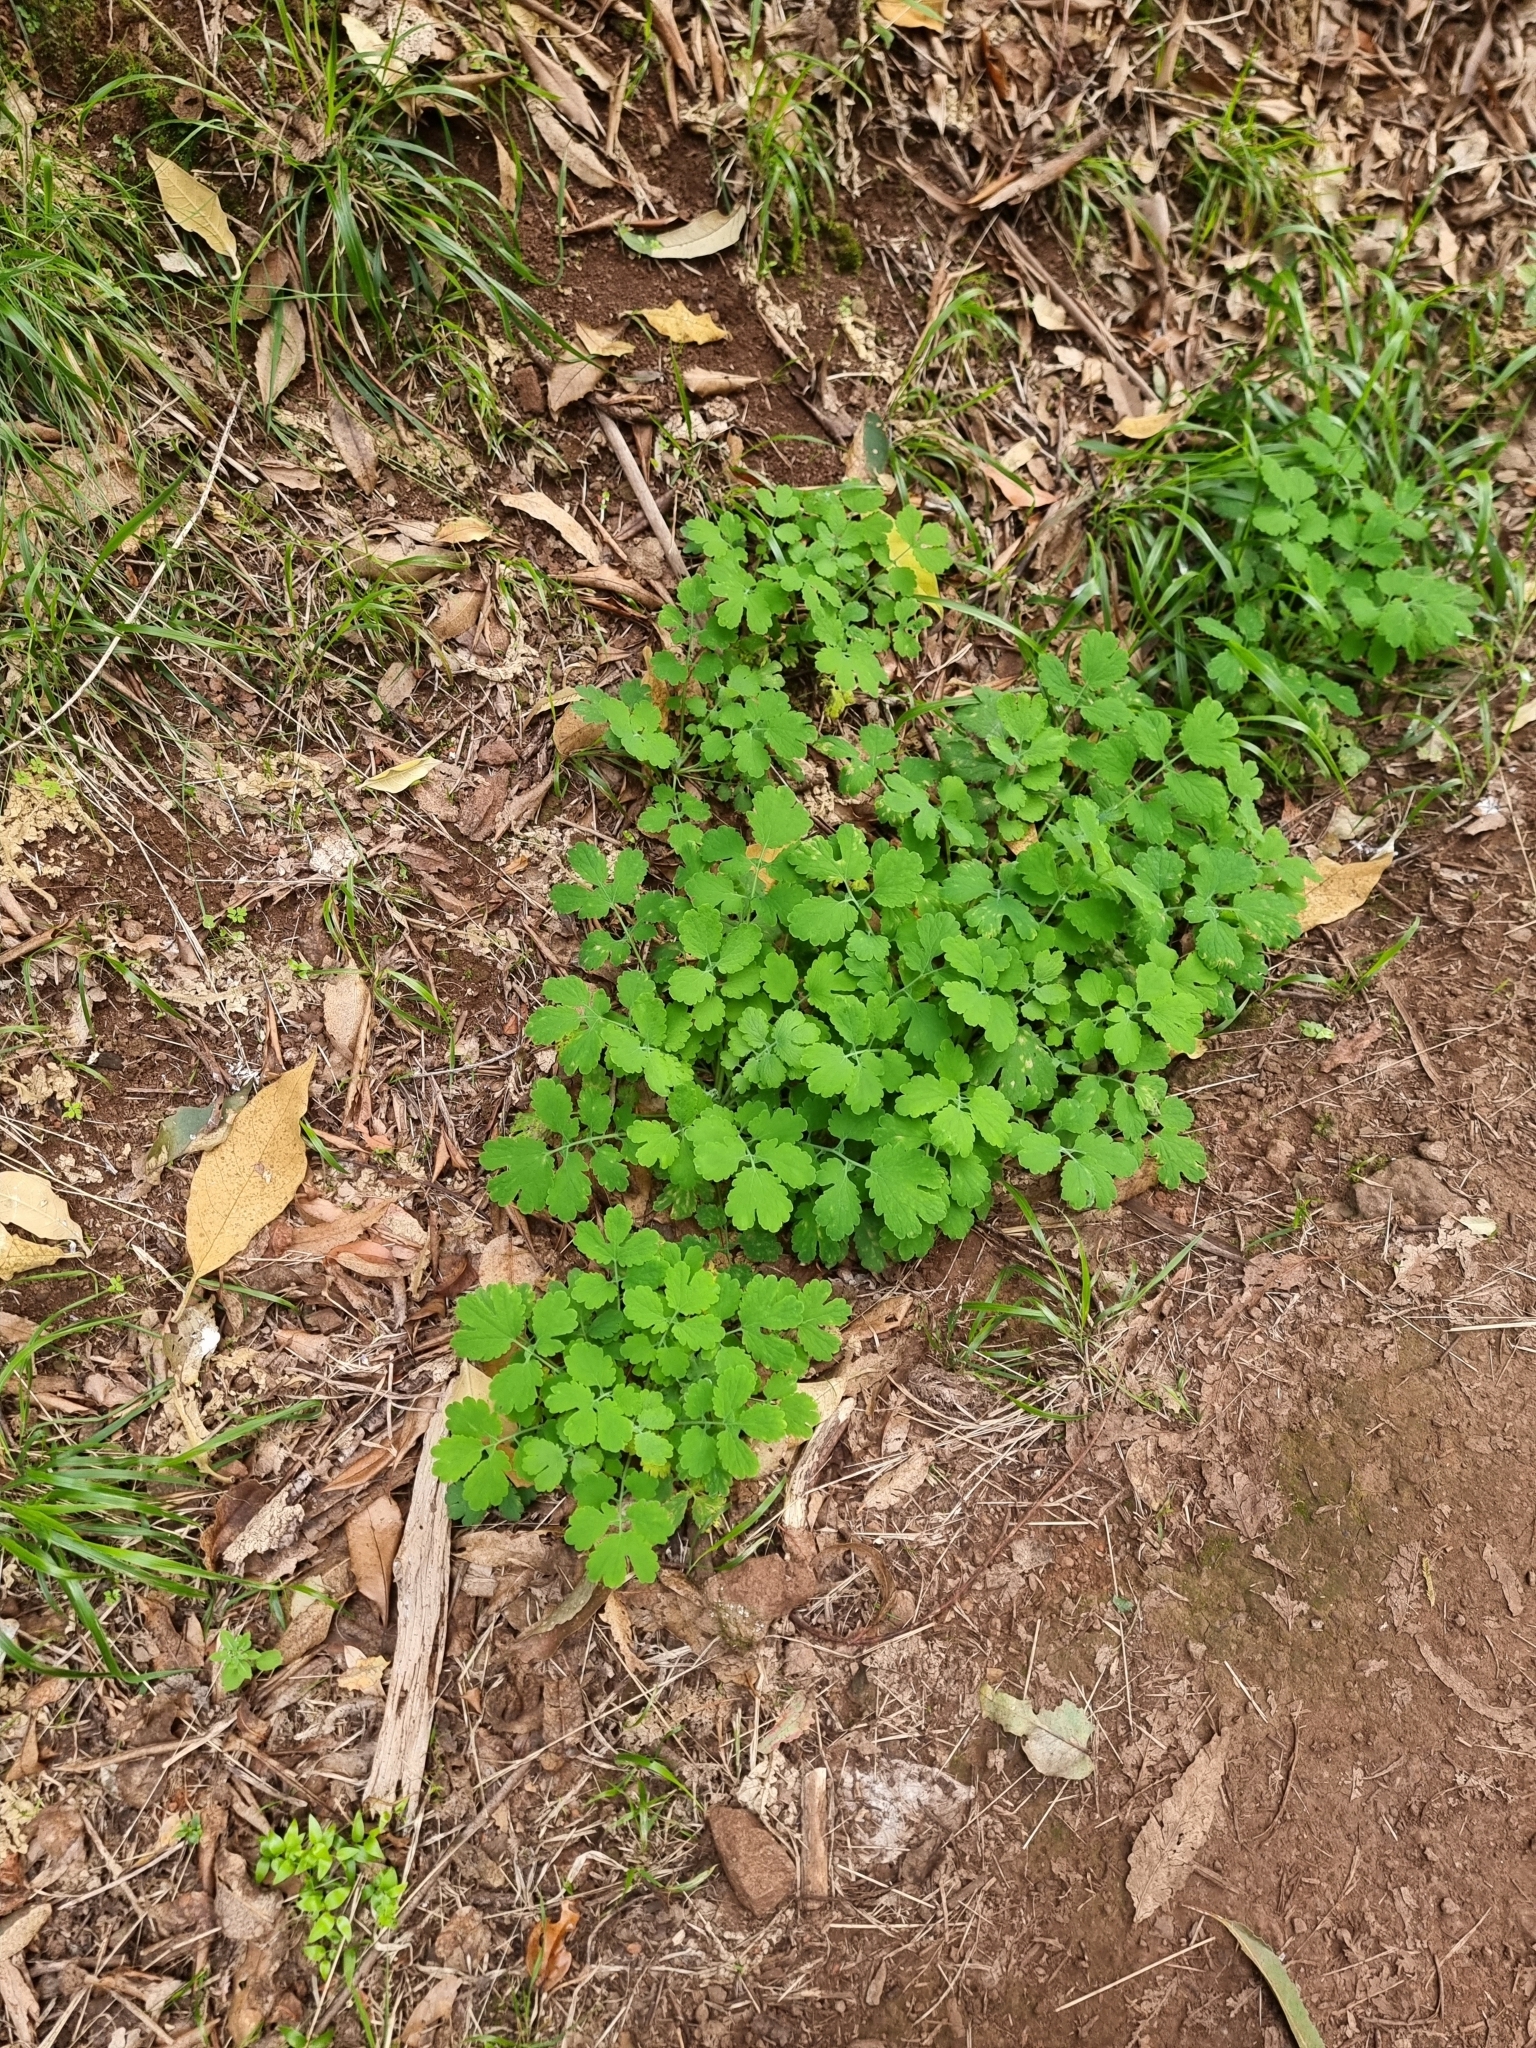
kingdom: Plantae
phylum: Tracheophyta
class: Magnoliopsida
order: Ranunculales
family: Papaveraceae
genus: Chelidonium
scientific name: Chelidonium majus
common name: Greater celandine
